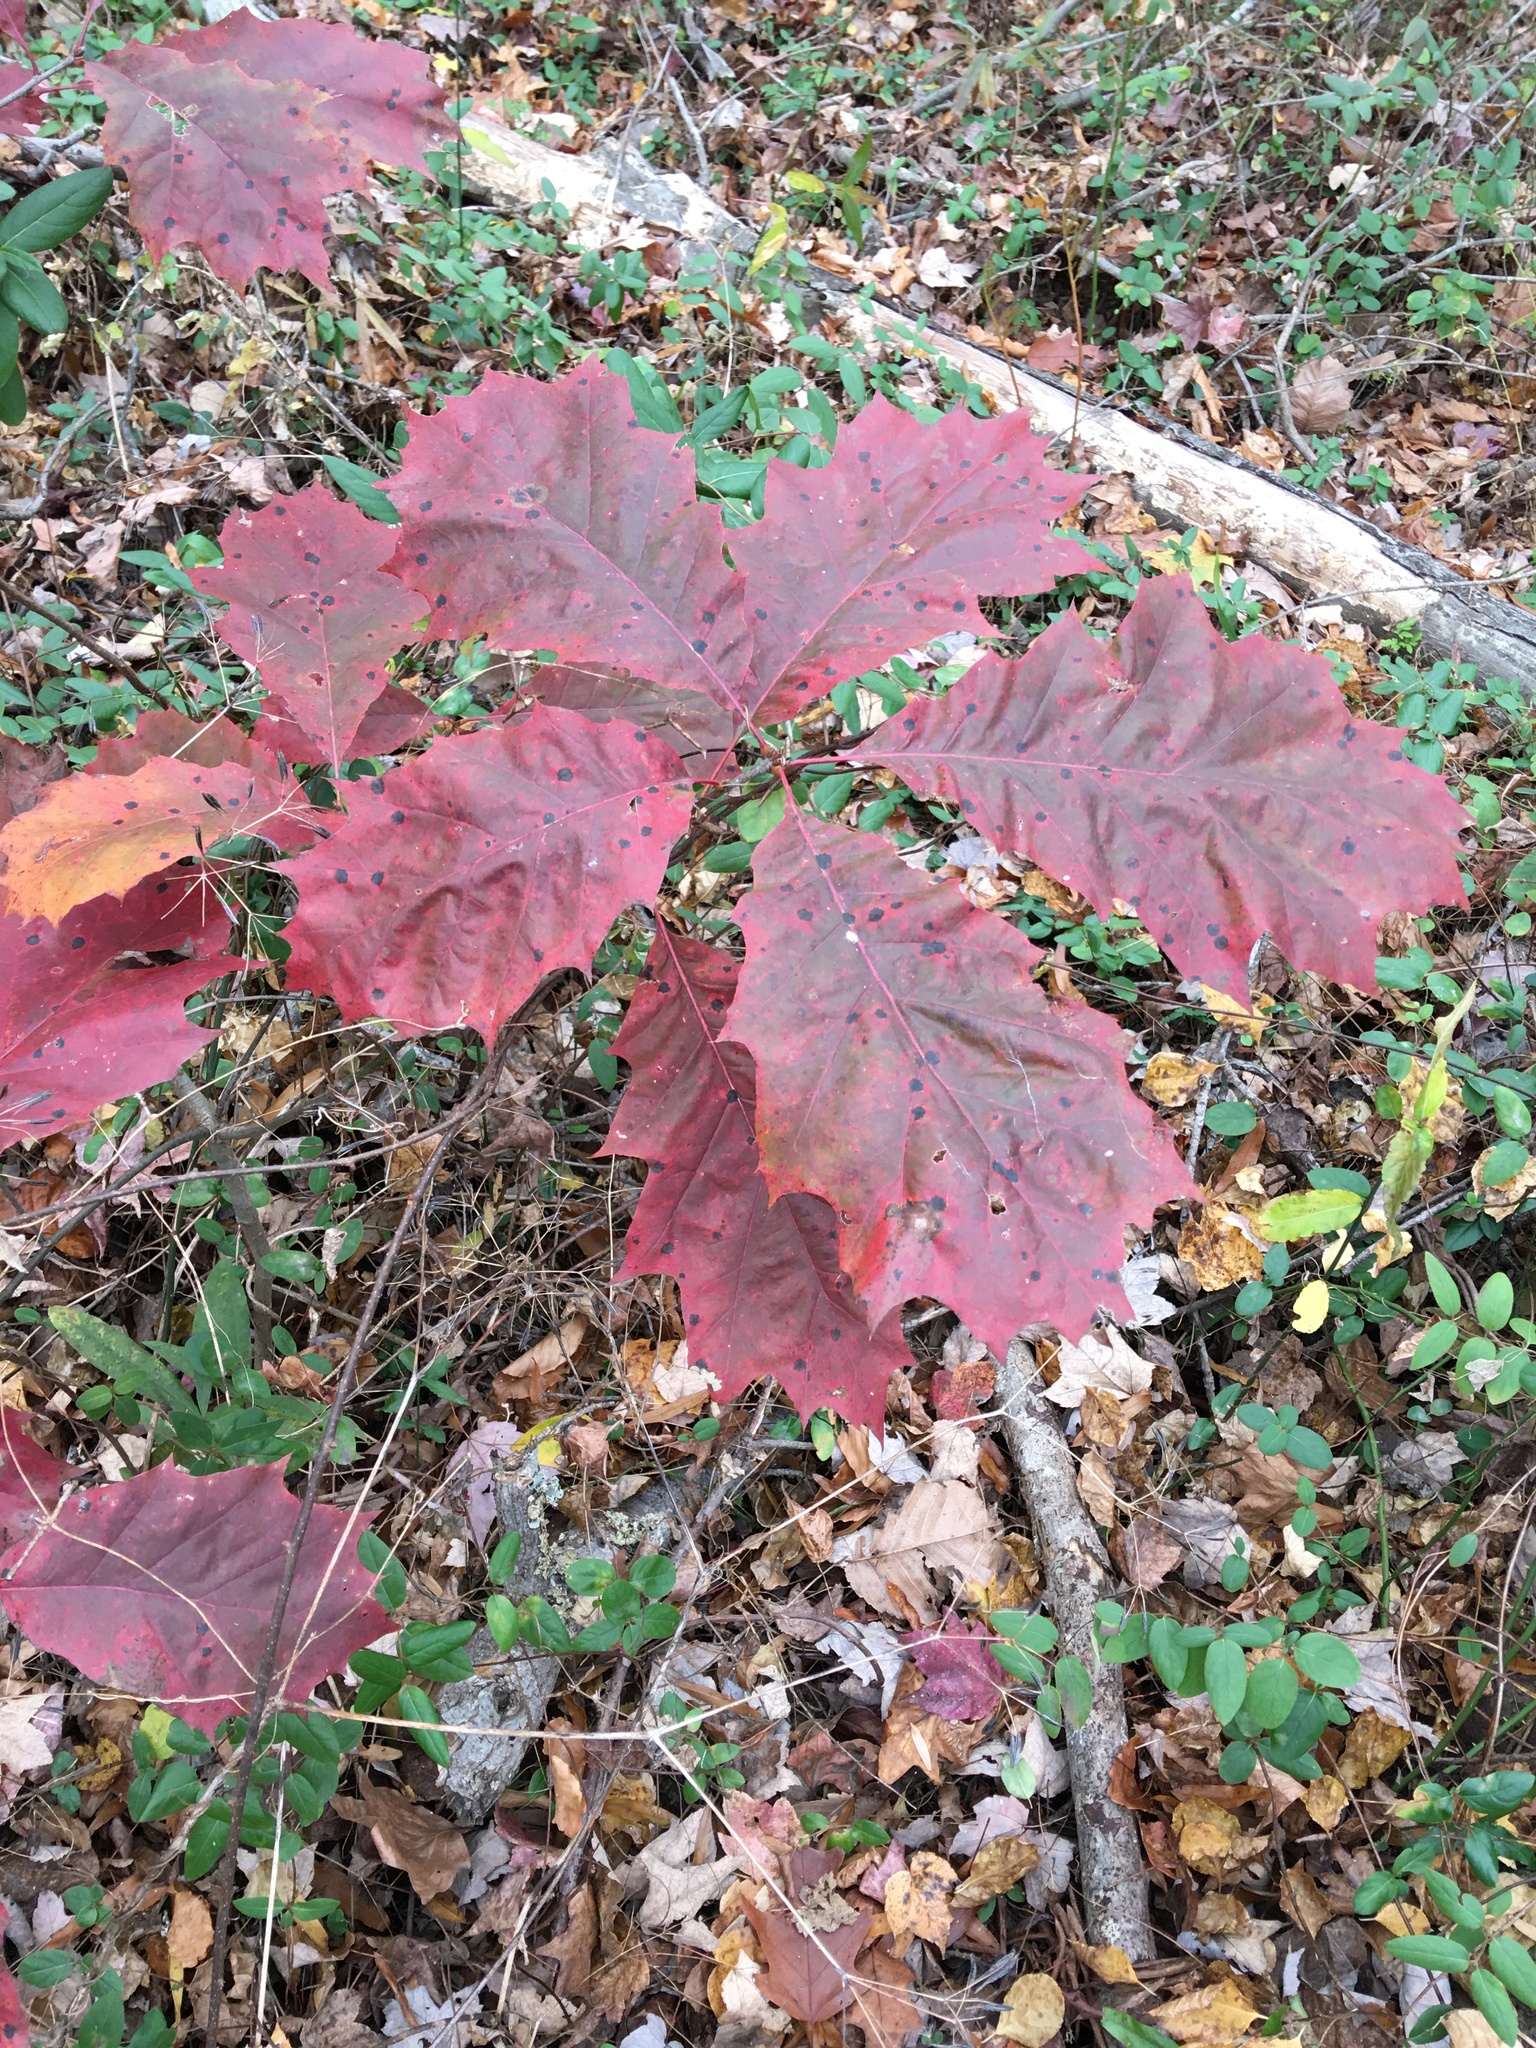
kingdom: Plantae
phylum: Tracheophyta
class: Magnoliopsida
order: Fagales
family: Fagaceae
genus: Quercus
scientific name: Quercus rubra
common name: Red oak
